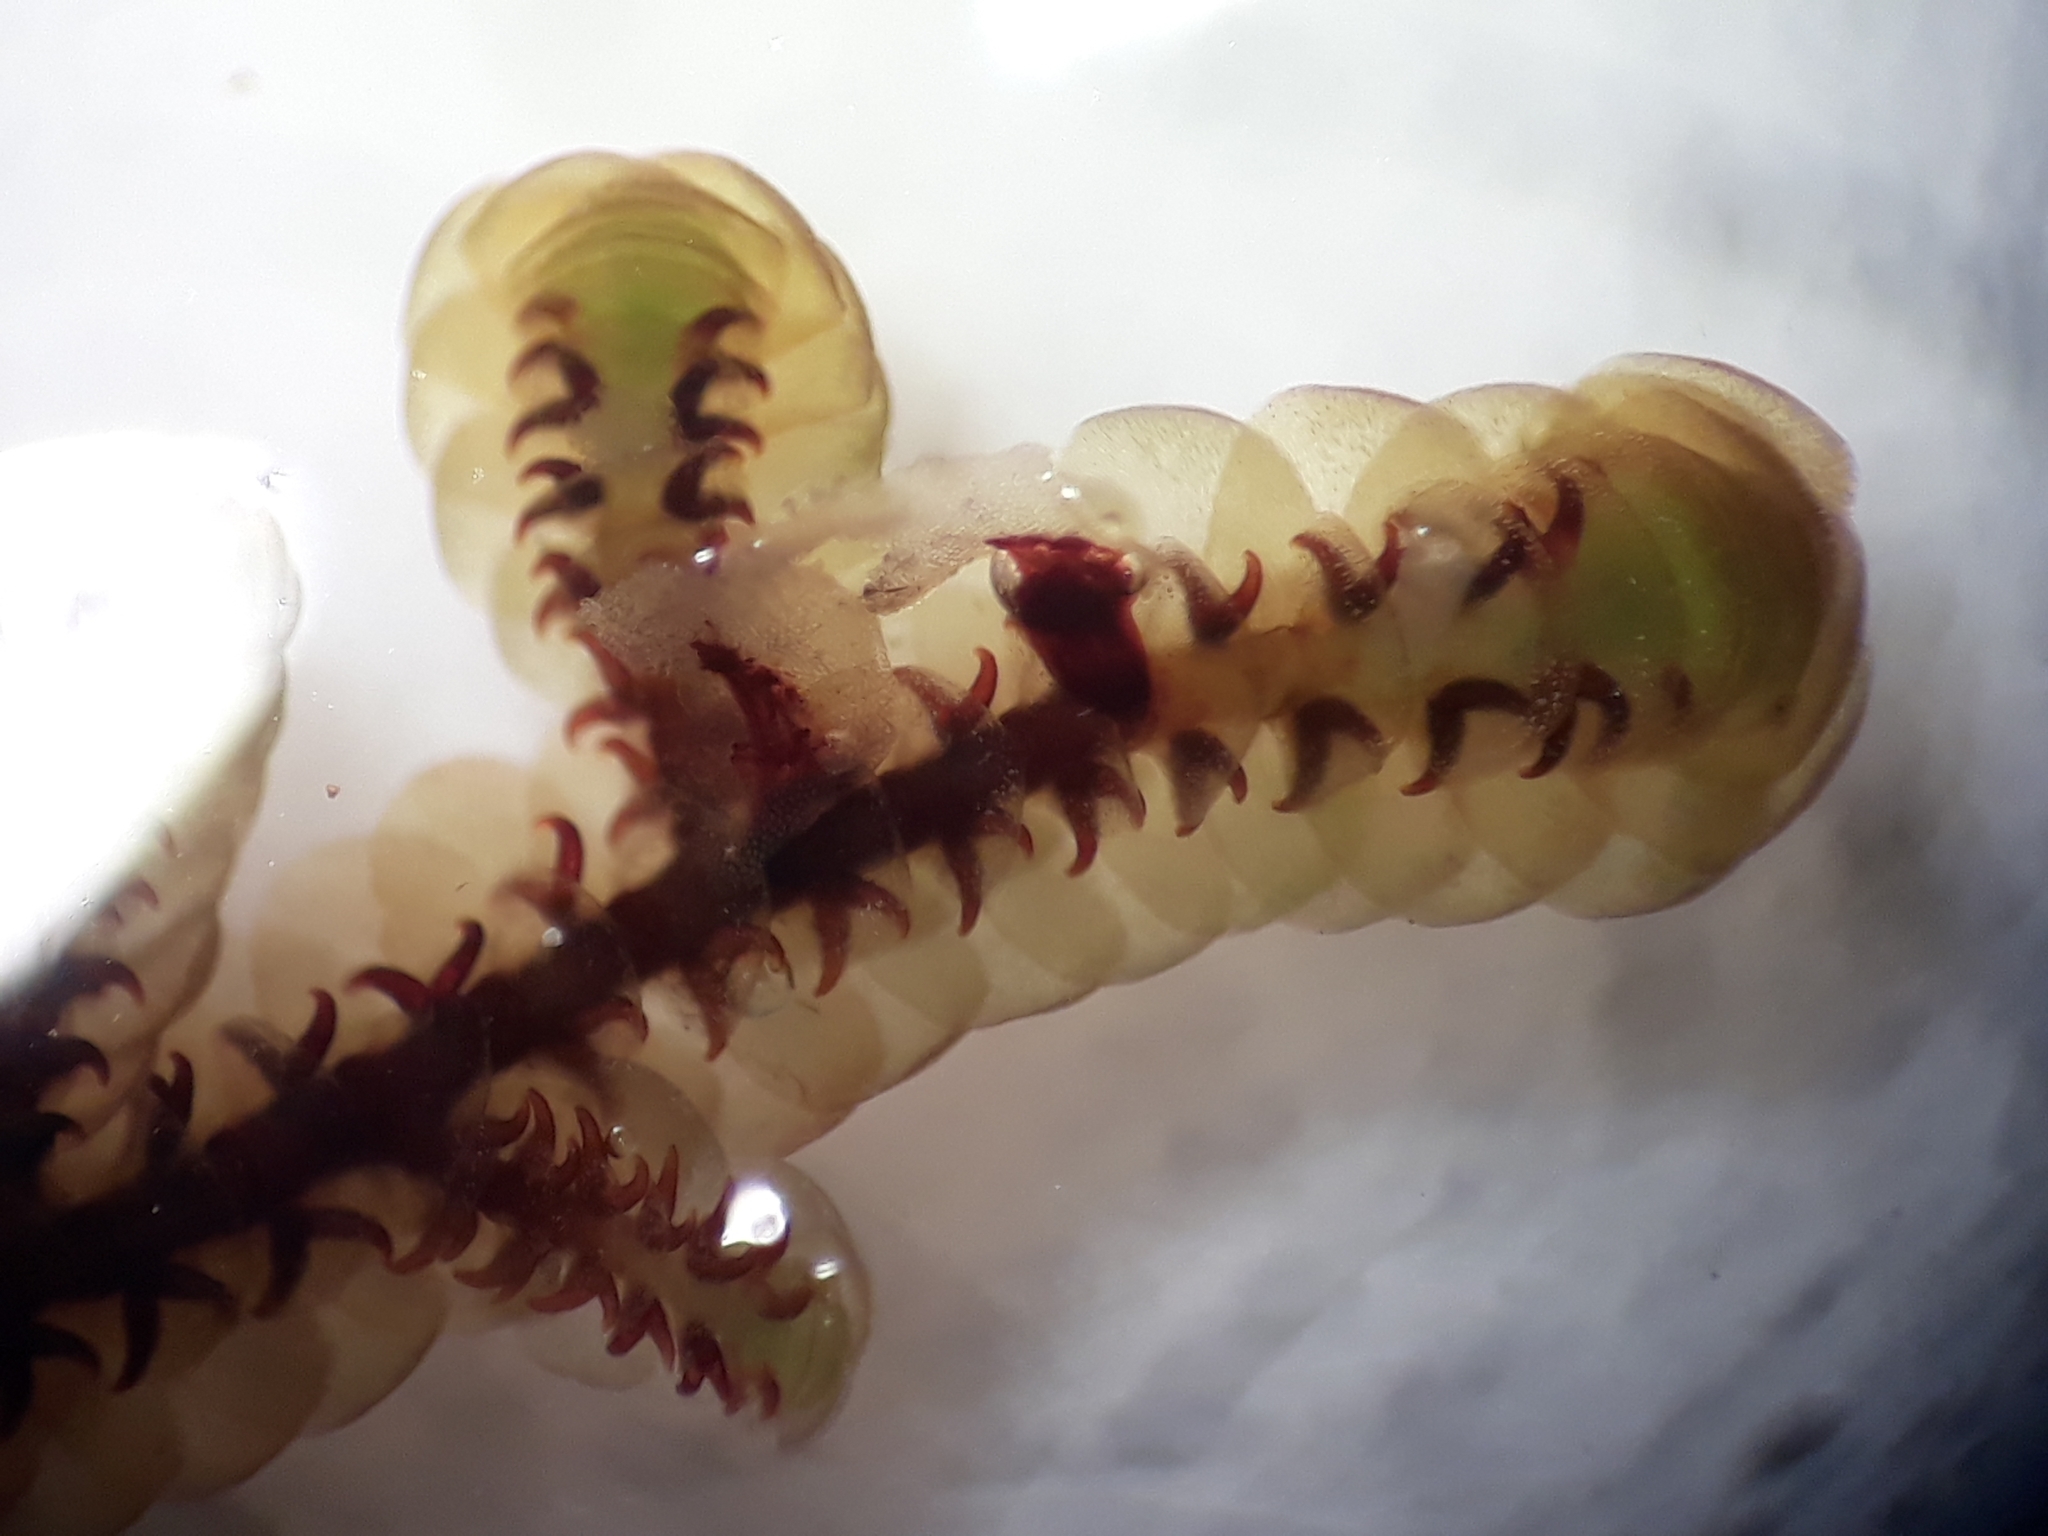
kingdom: Plantae
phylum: Marchantiophyta
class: Jungermanniopsida
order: Porellales
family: Goebeliellaceae
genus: Goebeliella
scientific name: Goebeliella cornigera
